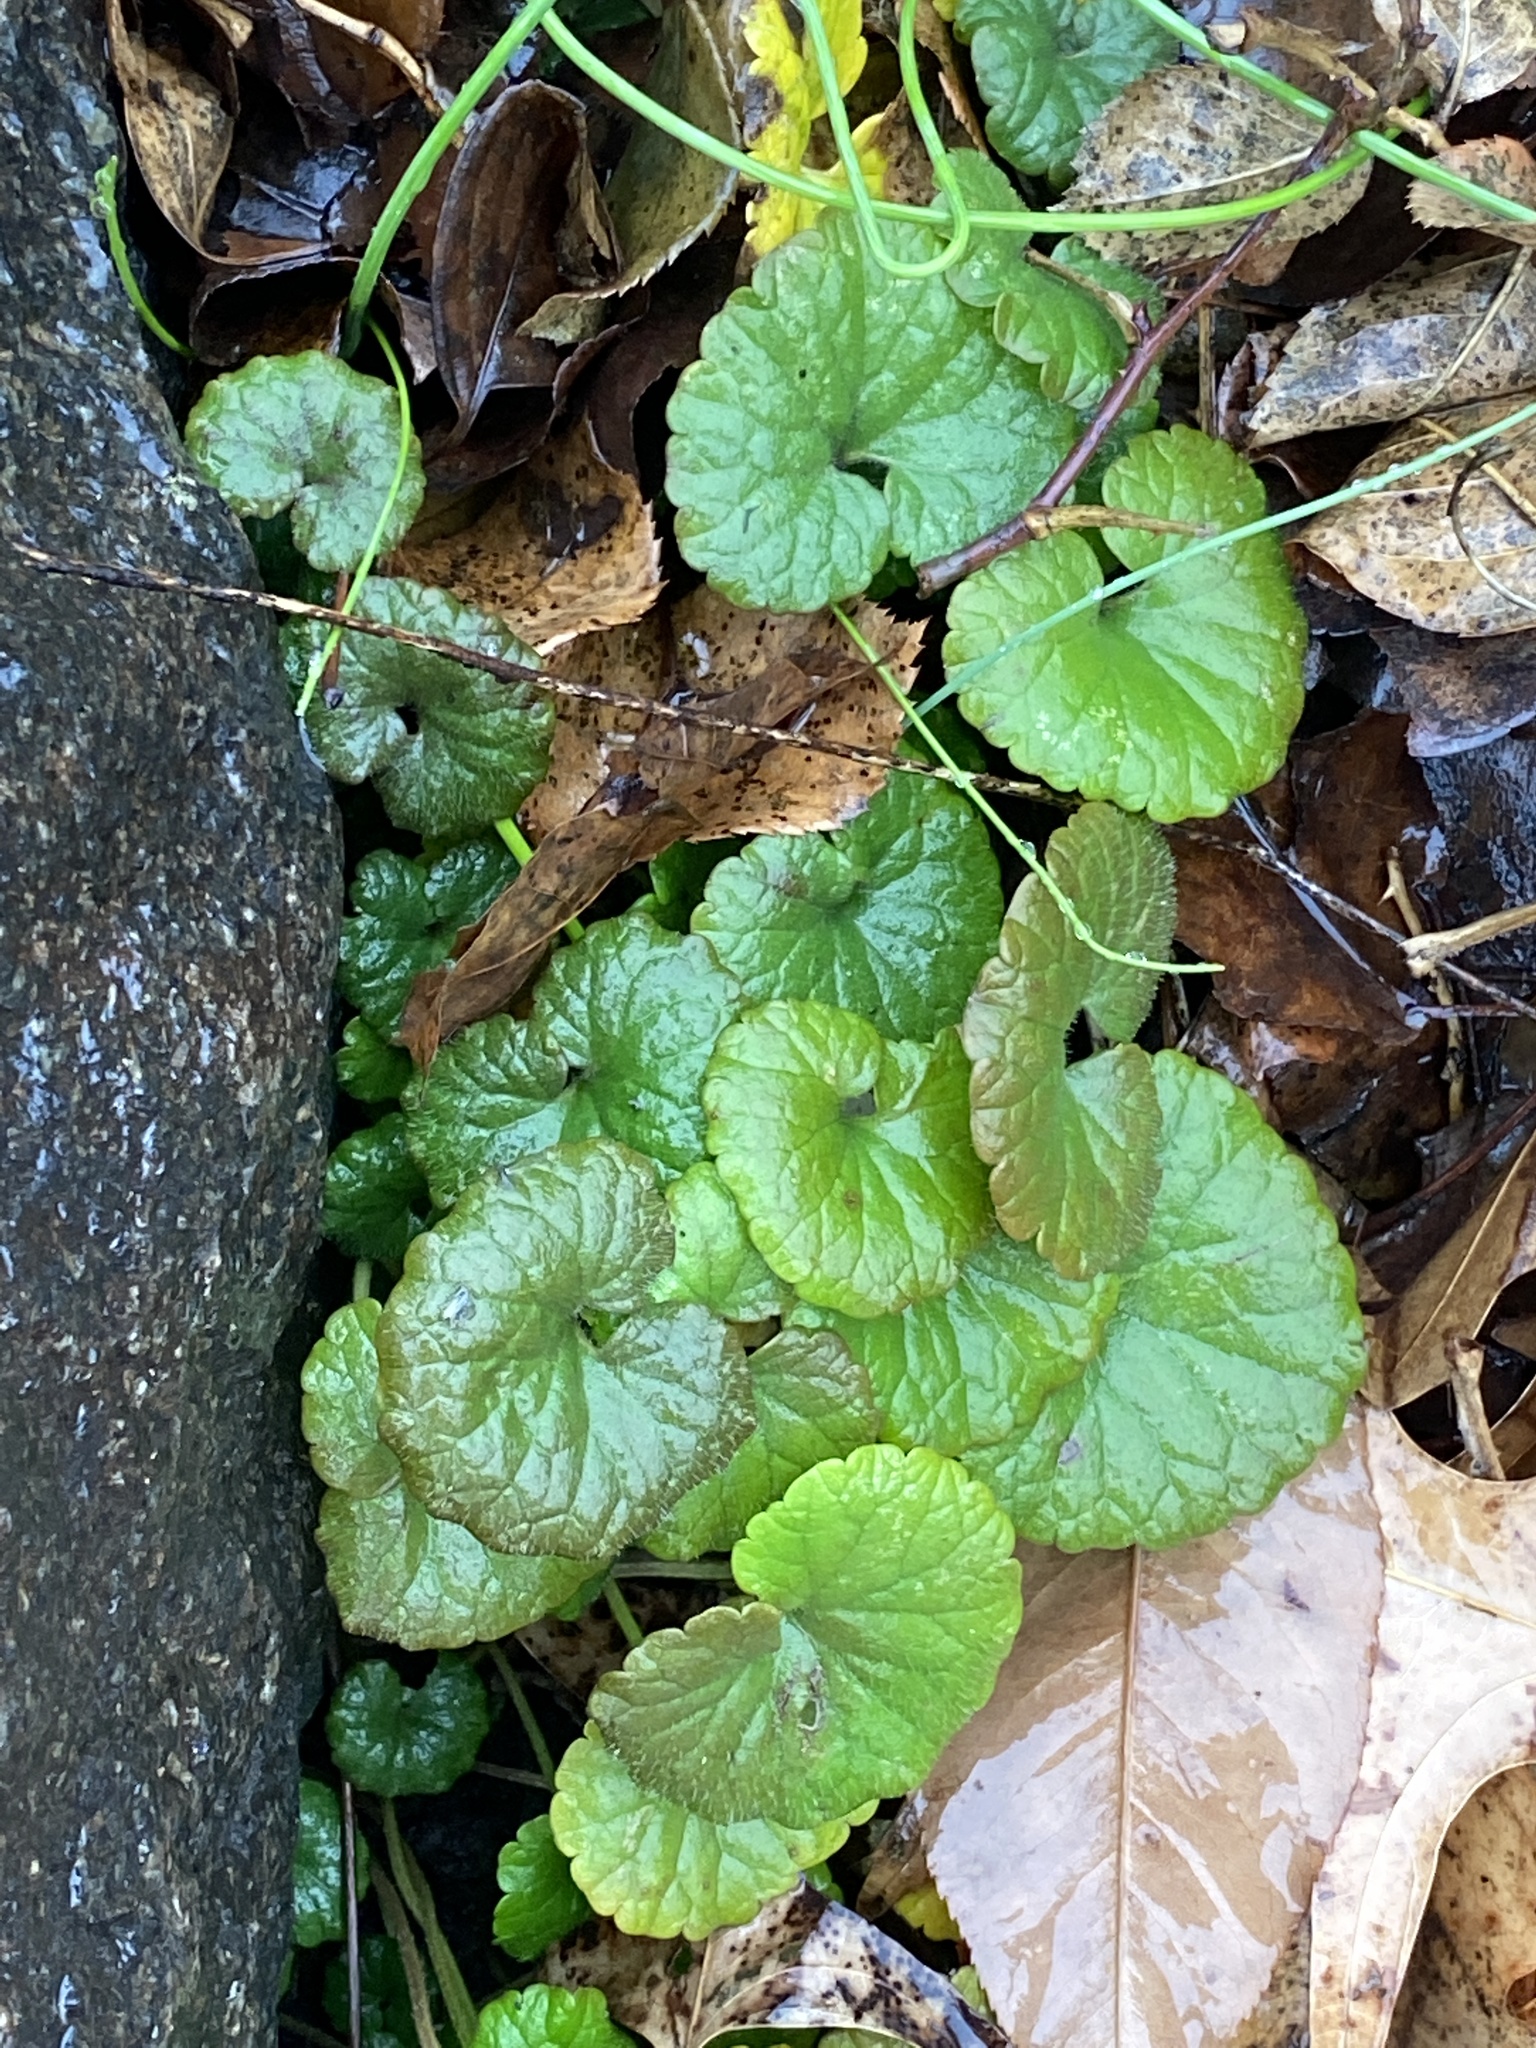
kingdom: Plantae
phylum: Tracheophyta
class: Magnoliopsida
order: Lamiales
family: Lamiaceae
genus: Glechoma
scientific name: Glechoma hederacea
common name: Ground ivy
